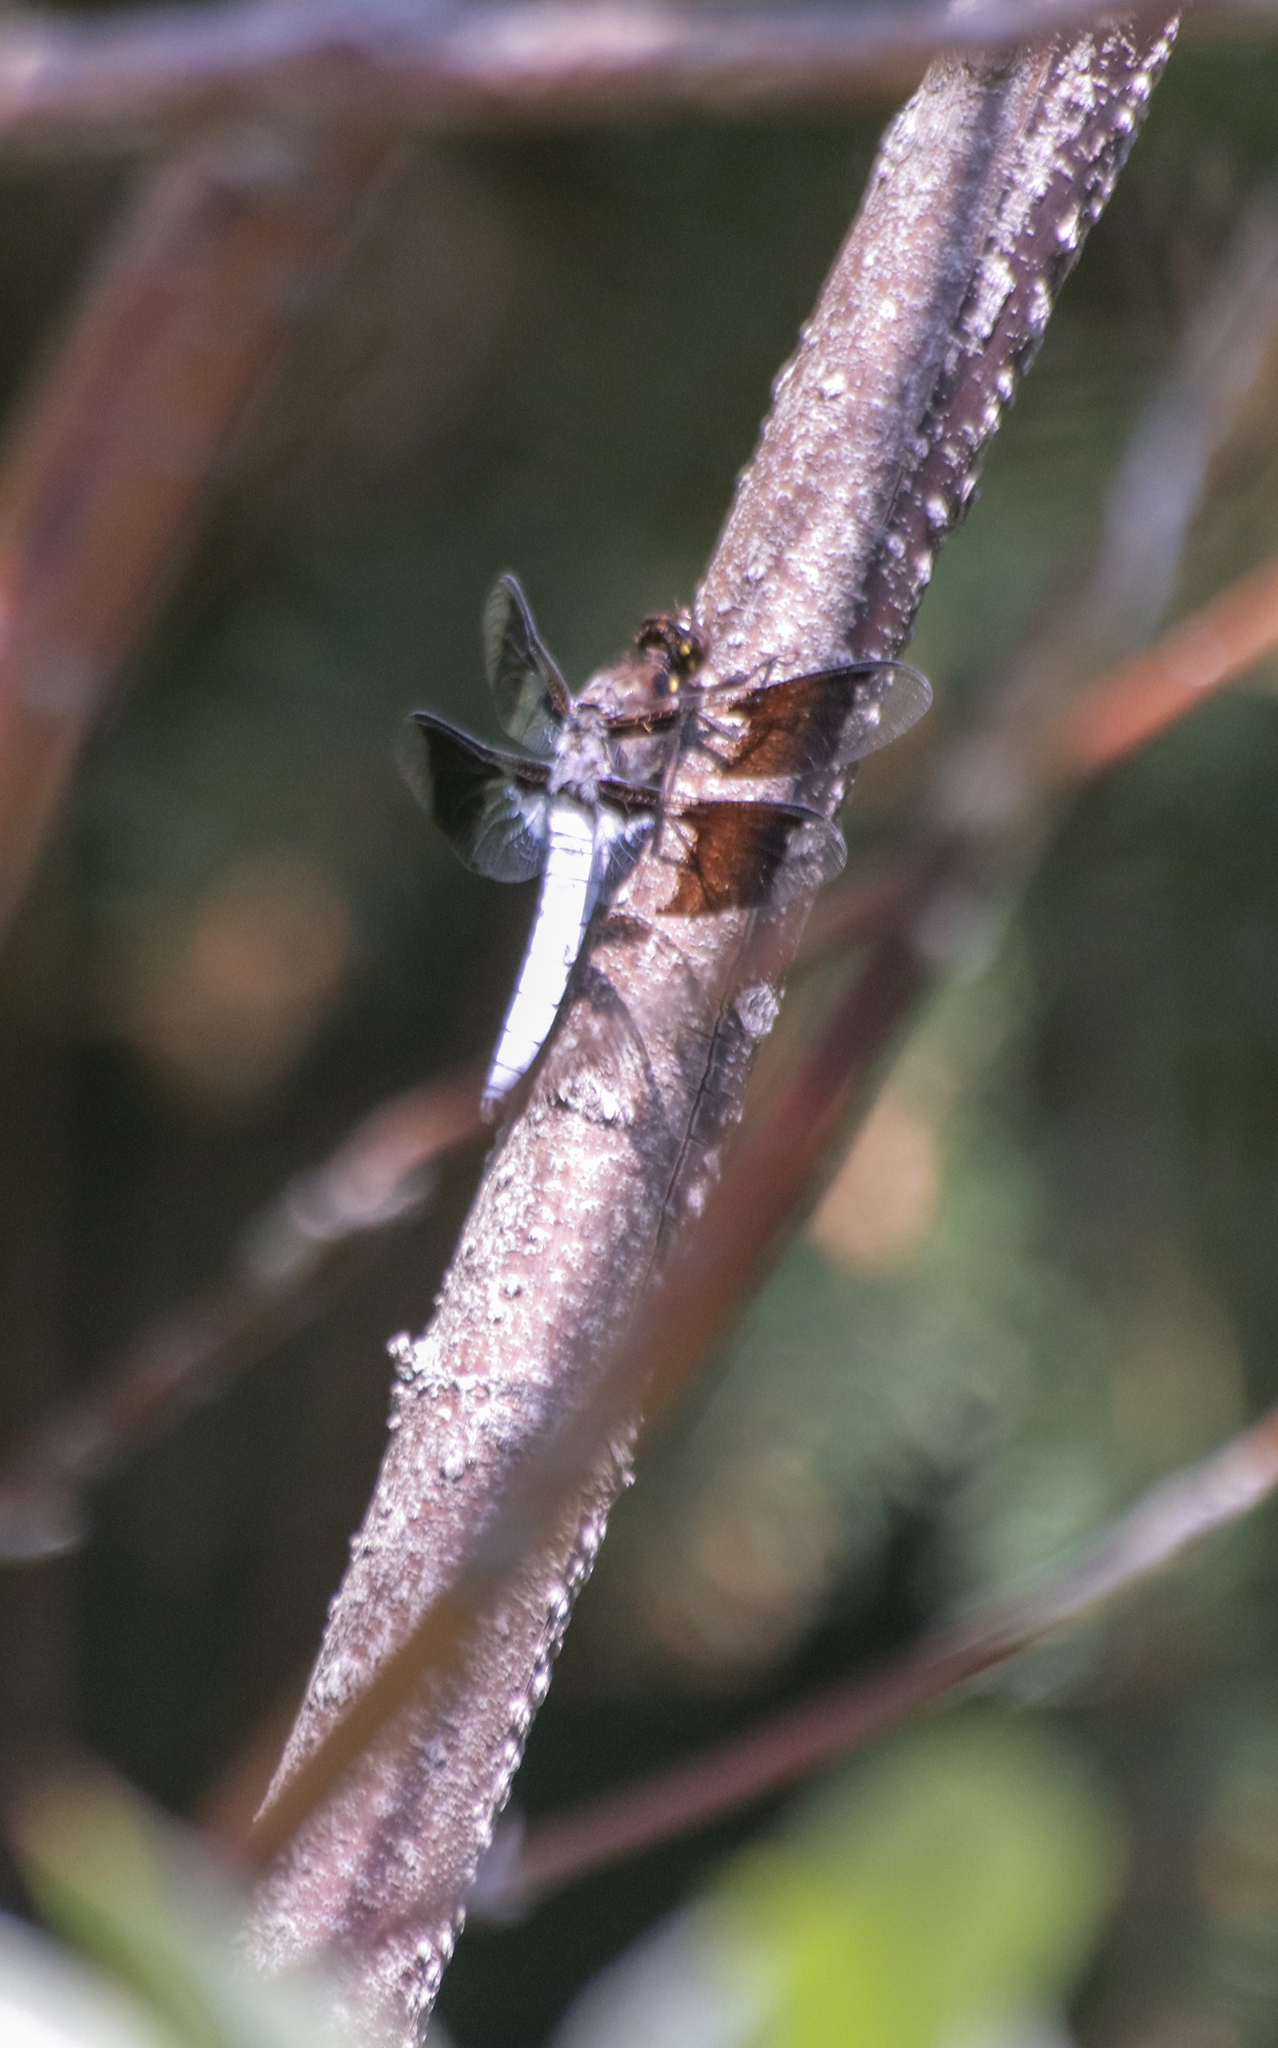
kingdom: Animalia
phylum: Arthropoda
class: Insecta
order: Odonata
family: Libellulidae
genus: Plathemis
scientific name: Plathemis lydia
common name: Common whitetail
